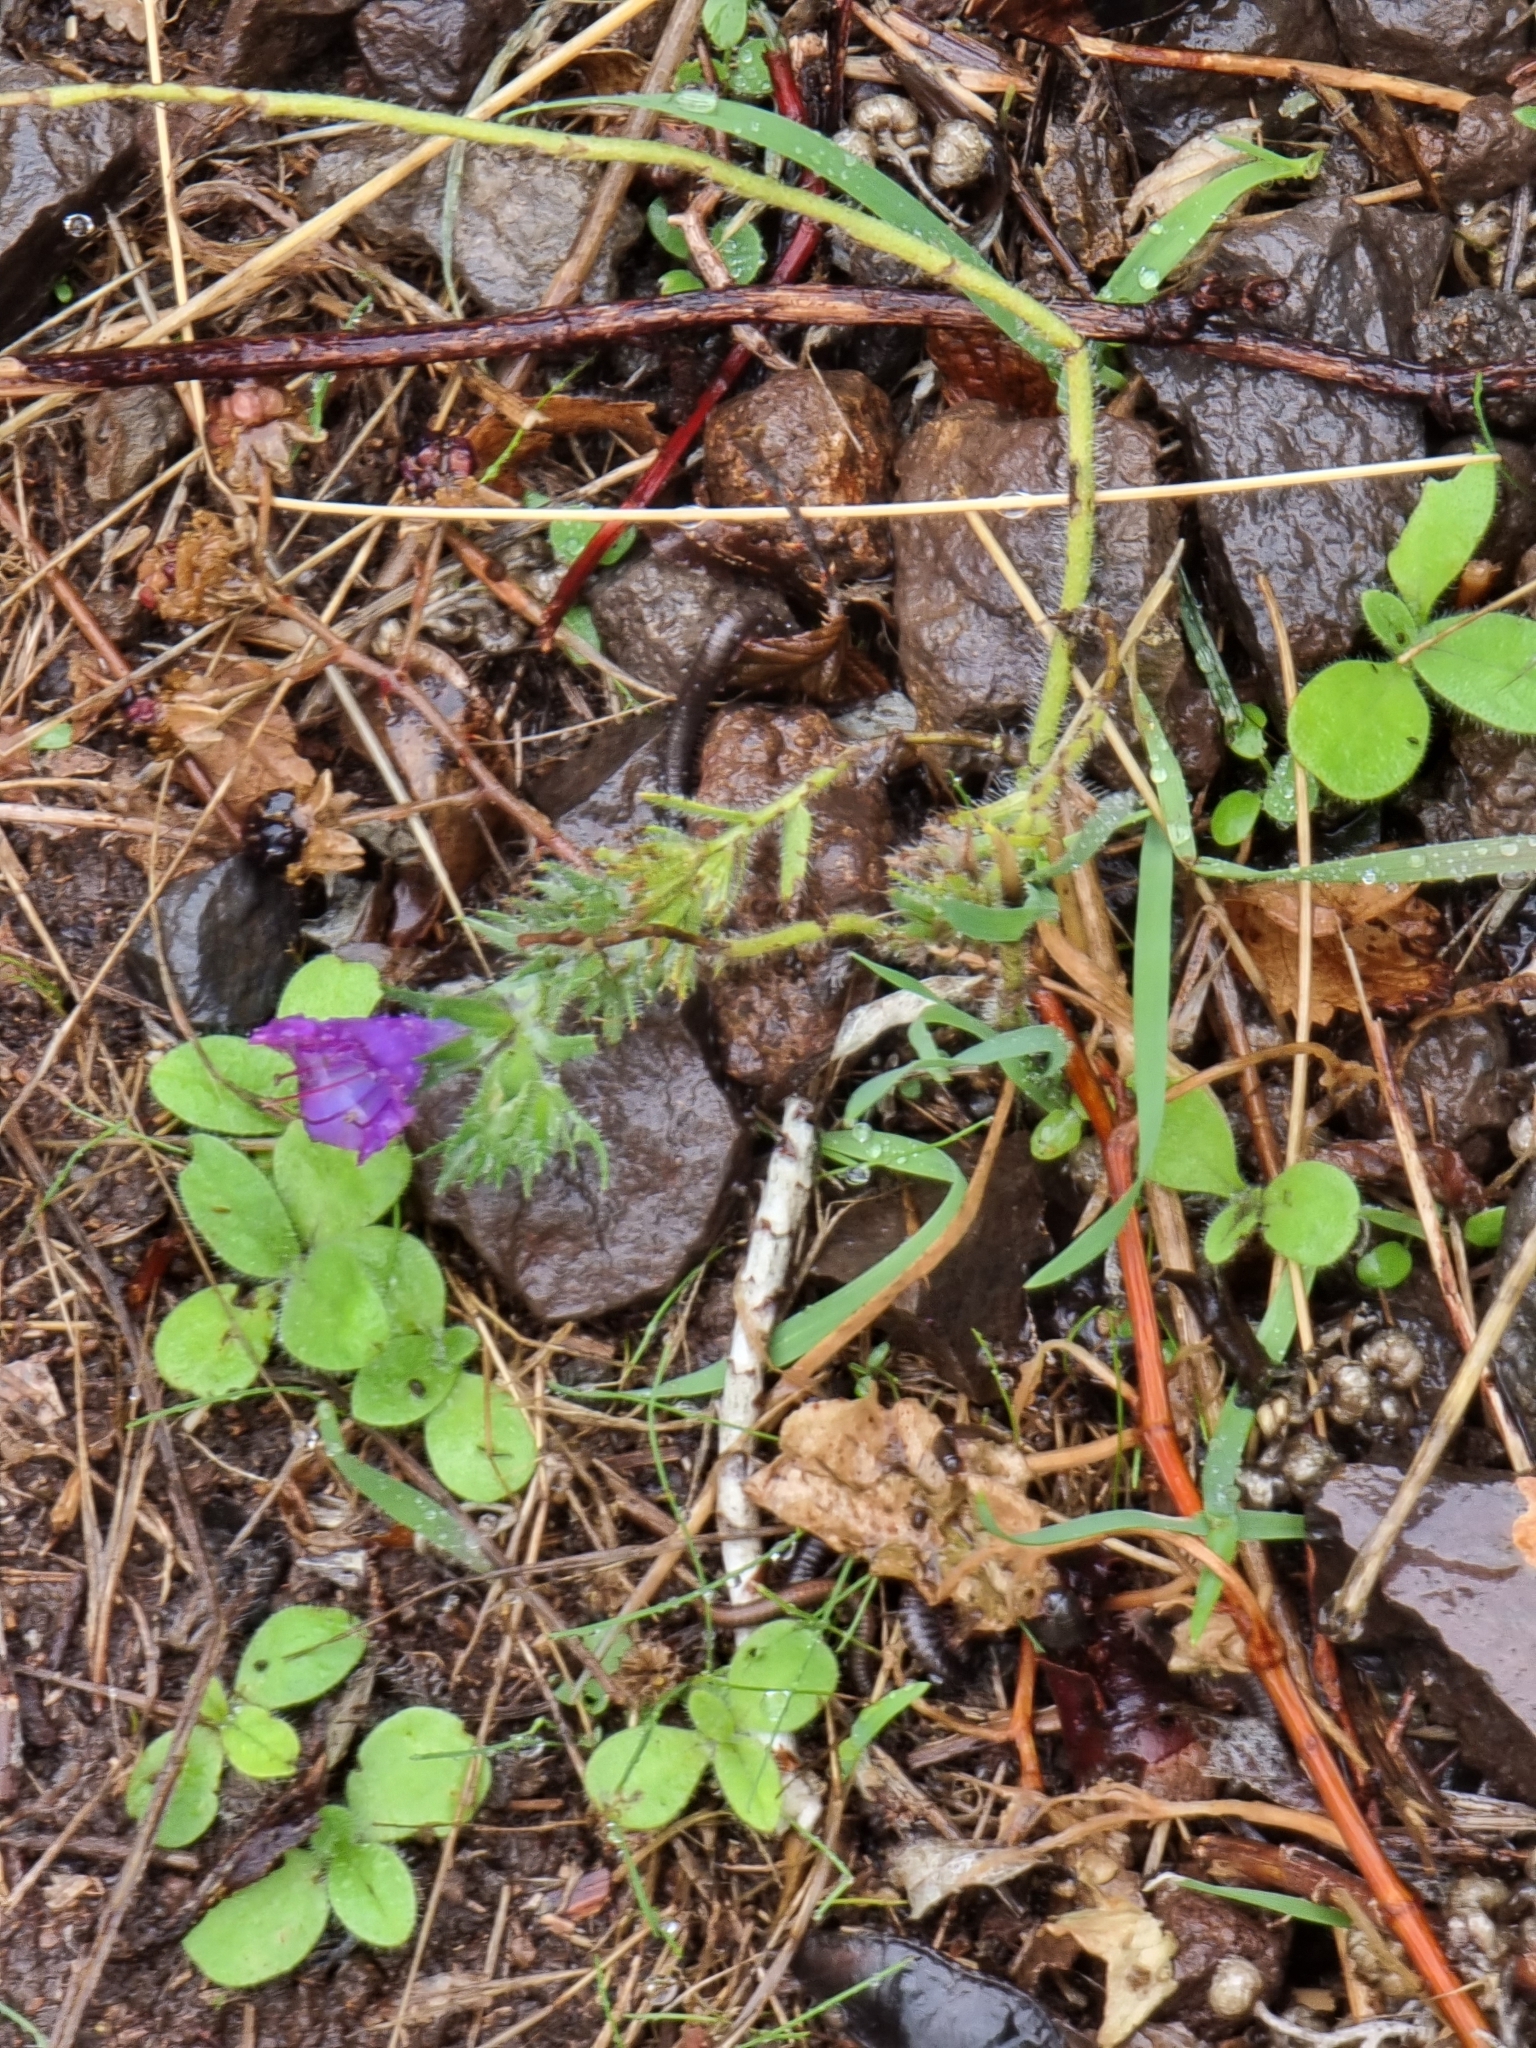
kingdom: Plantae
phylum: Tracheophyta
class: Magnoliopsida
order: Boraginales
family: Boraginaceae
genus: Echium
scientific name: Echium plantagineum
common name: Purple viper's-bugloss
